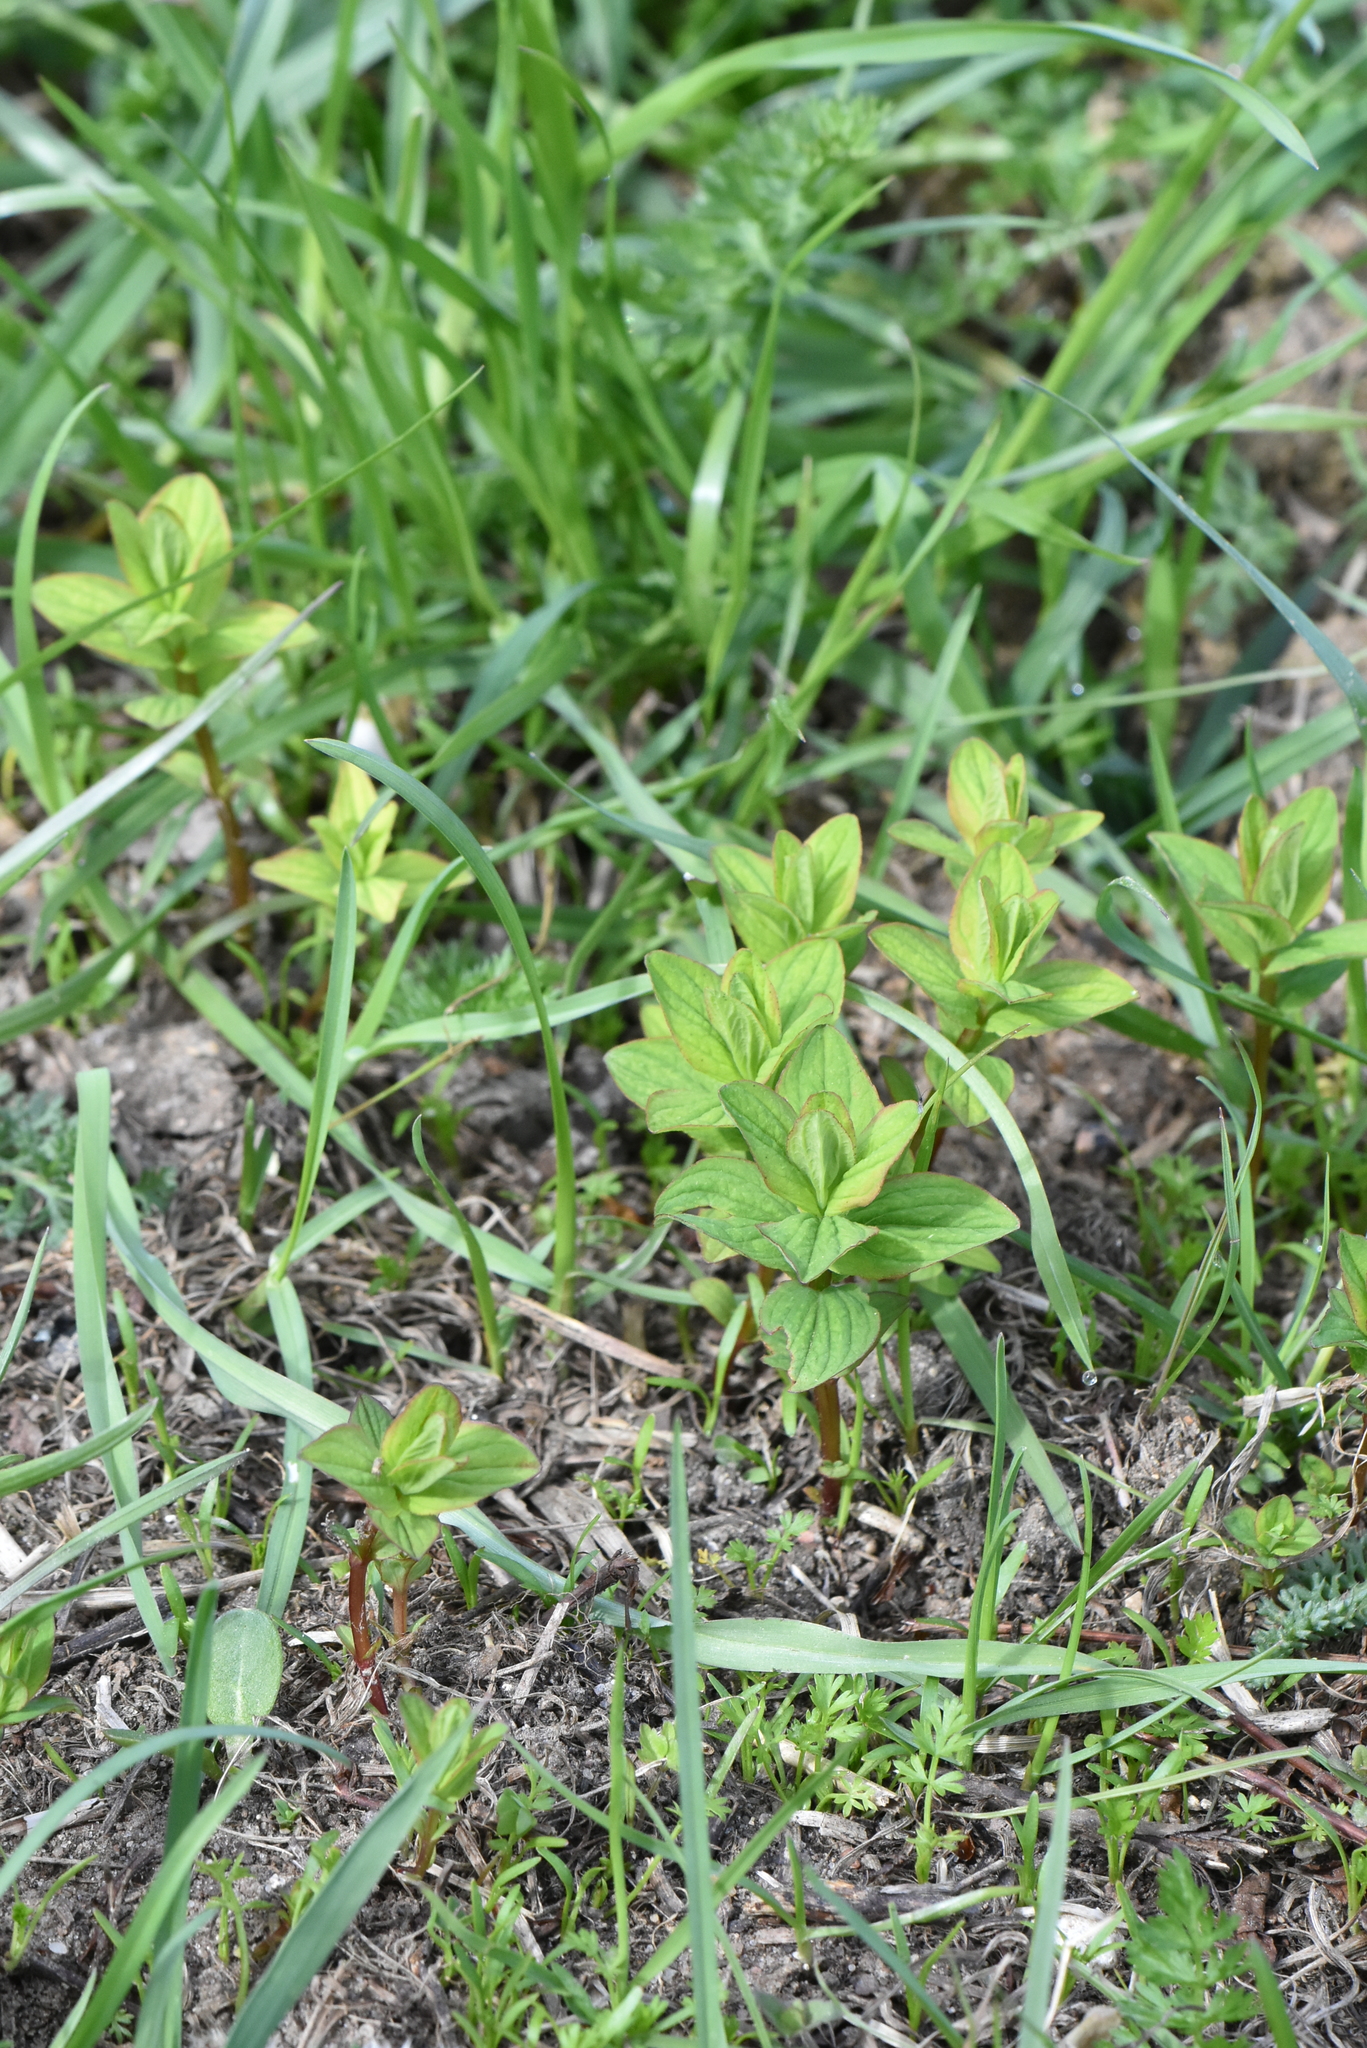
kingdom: Plantae
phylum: Tracheophyta
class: Magnoliopsida
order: Malpighiales
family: Hypericaceae
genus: Hypericum
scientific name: Hypericum maculatum
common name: Imperforate st. john's-wort
